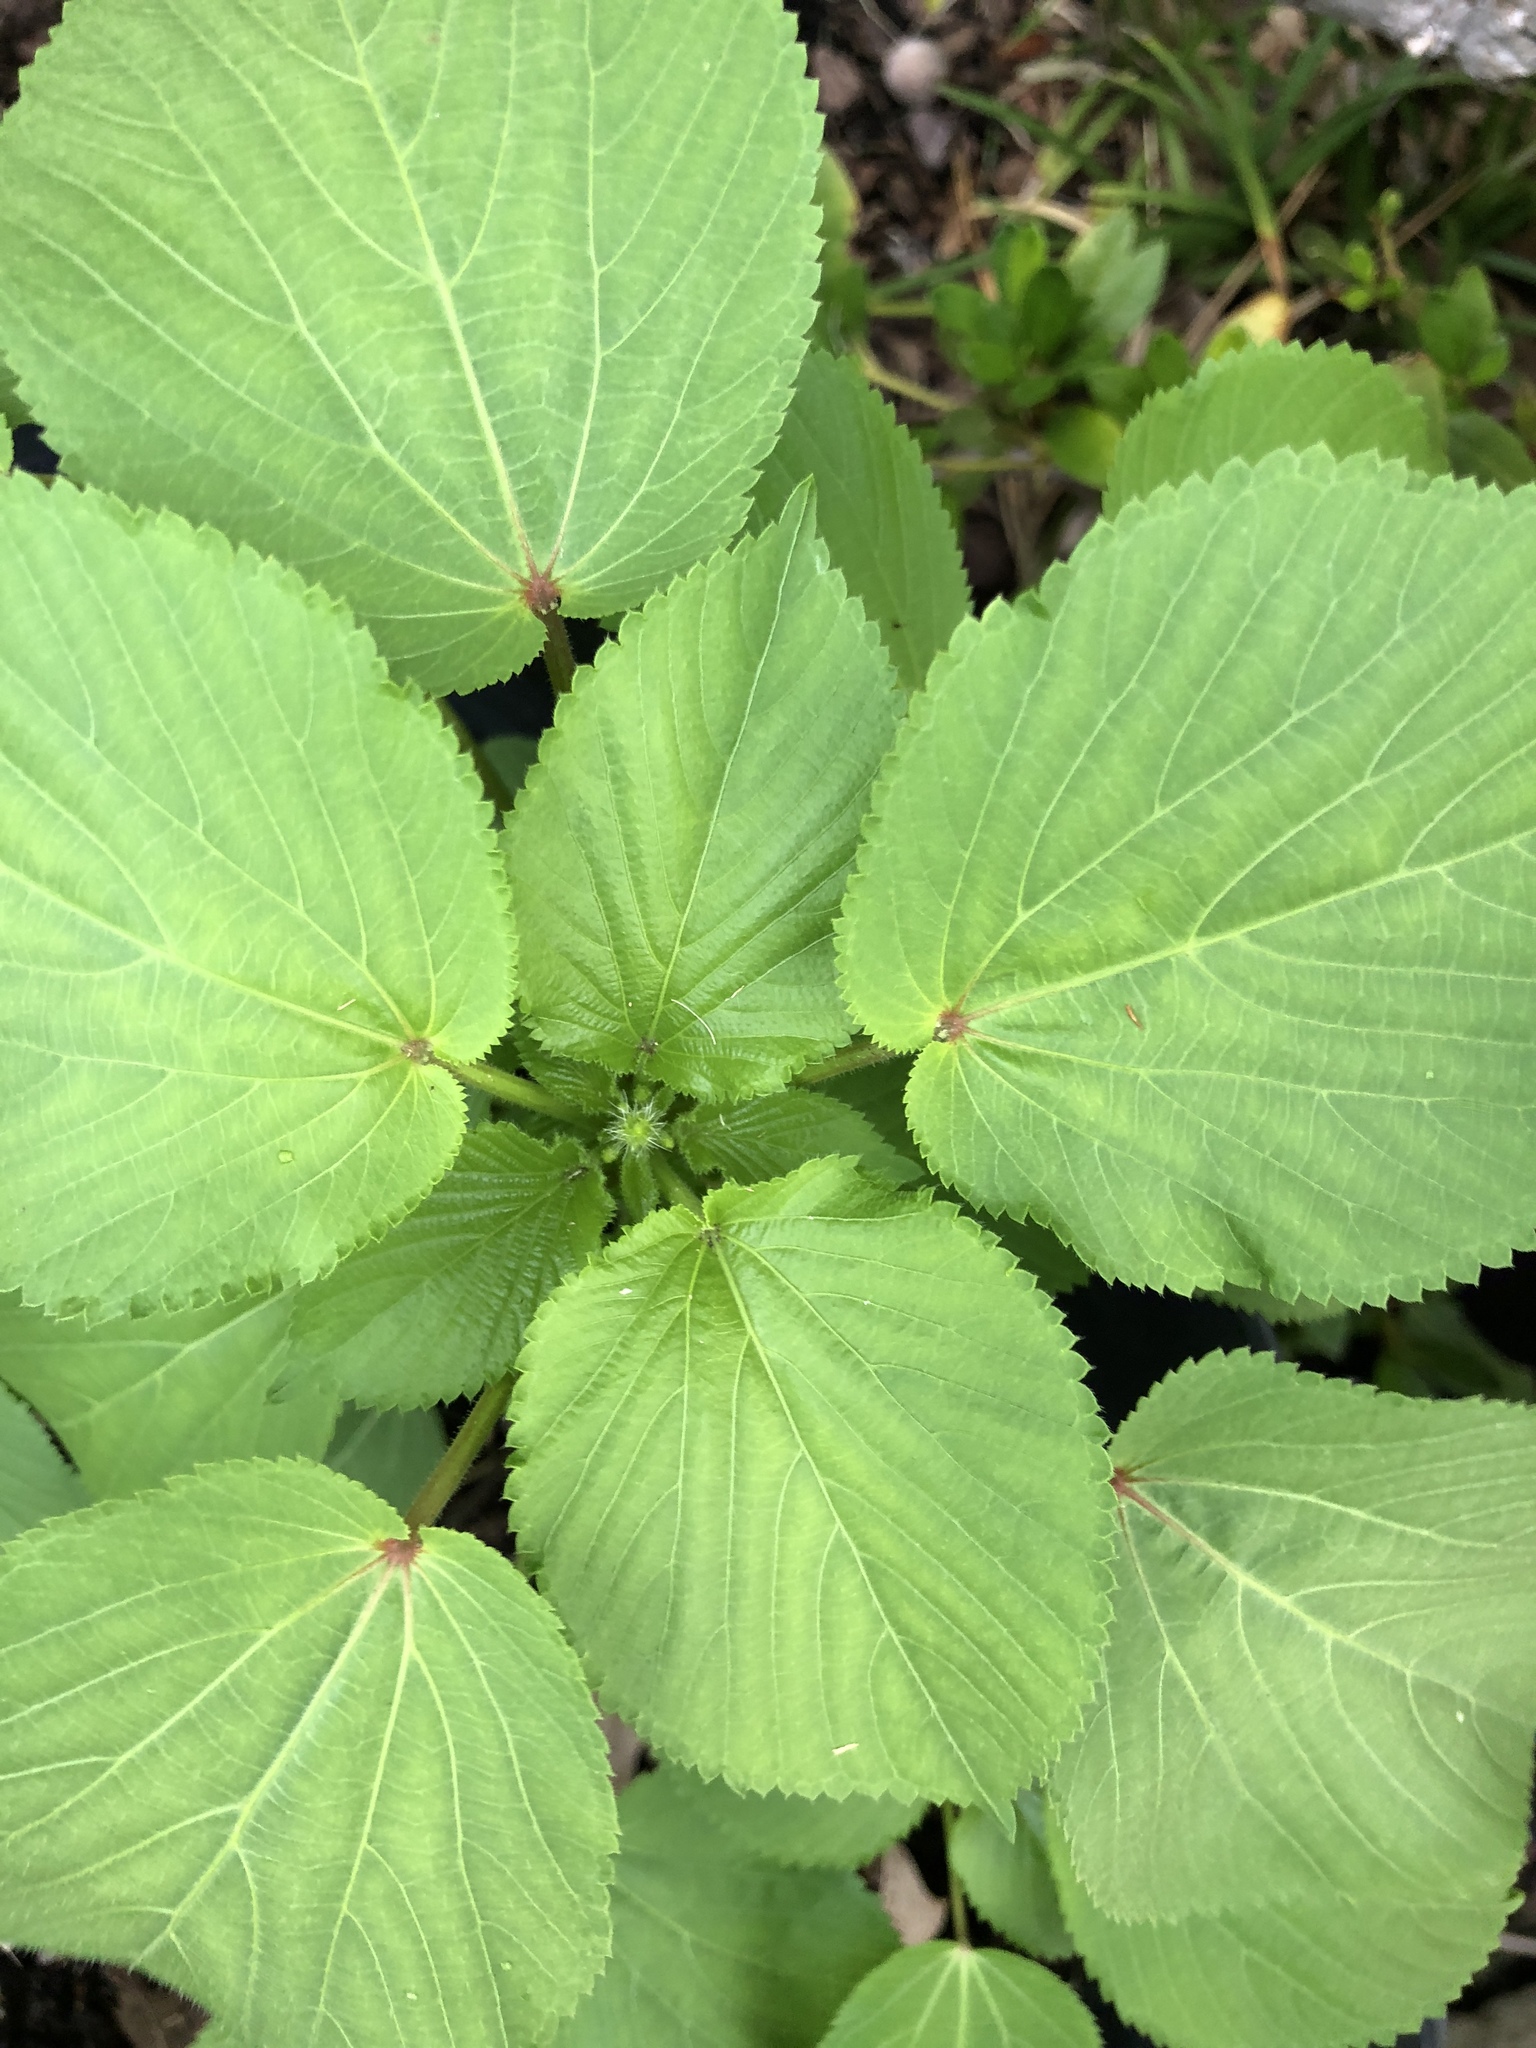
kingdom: Plantae
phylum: Tracheophyta
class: Magnoliopsida
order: Malpighiales
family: Euphorbiaceae
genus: Acalypha
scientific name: Acalypha ostryifolia
